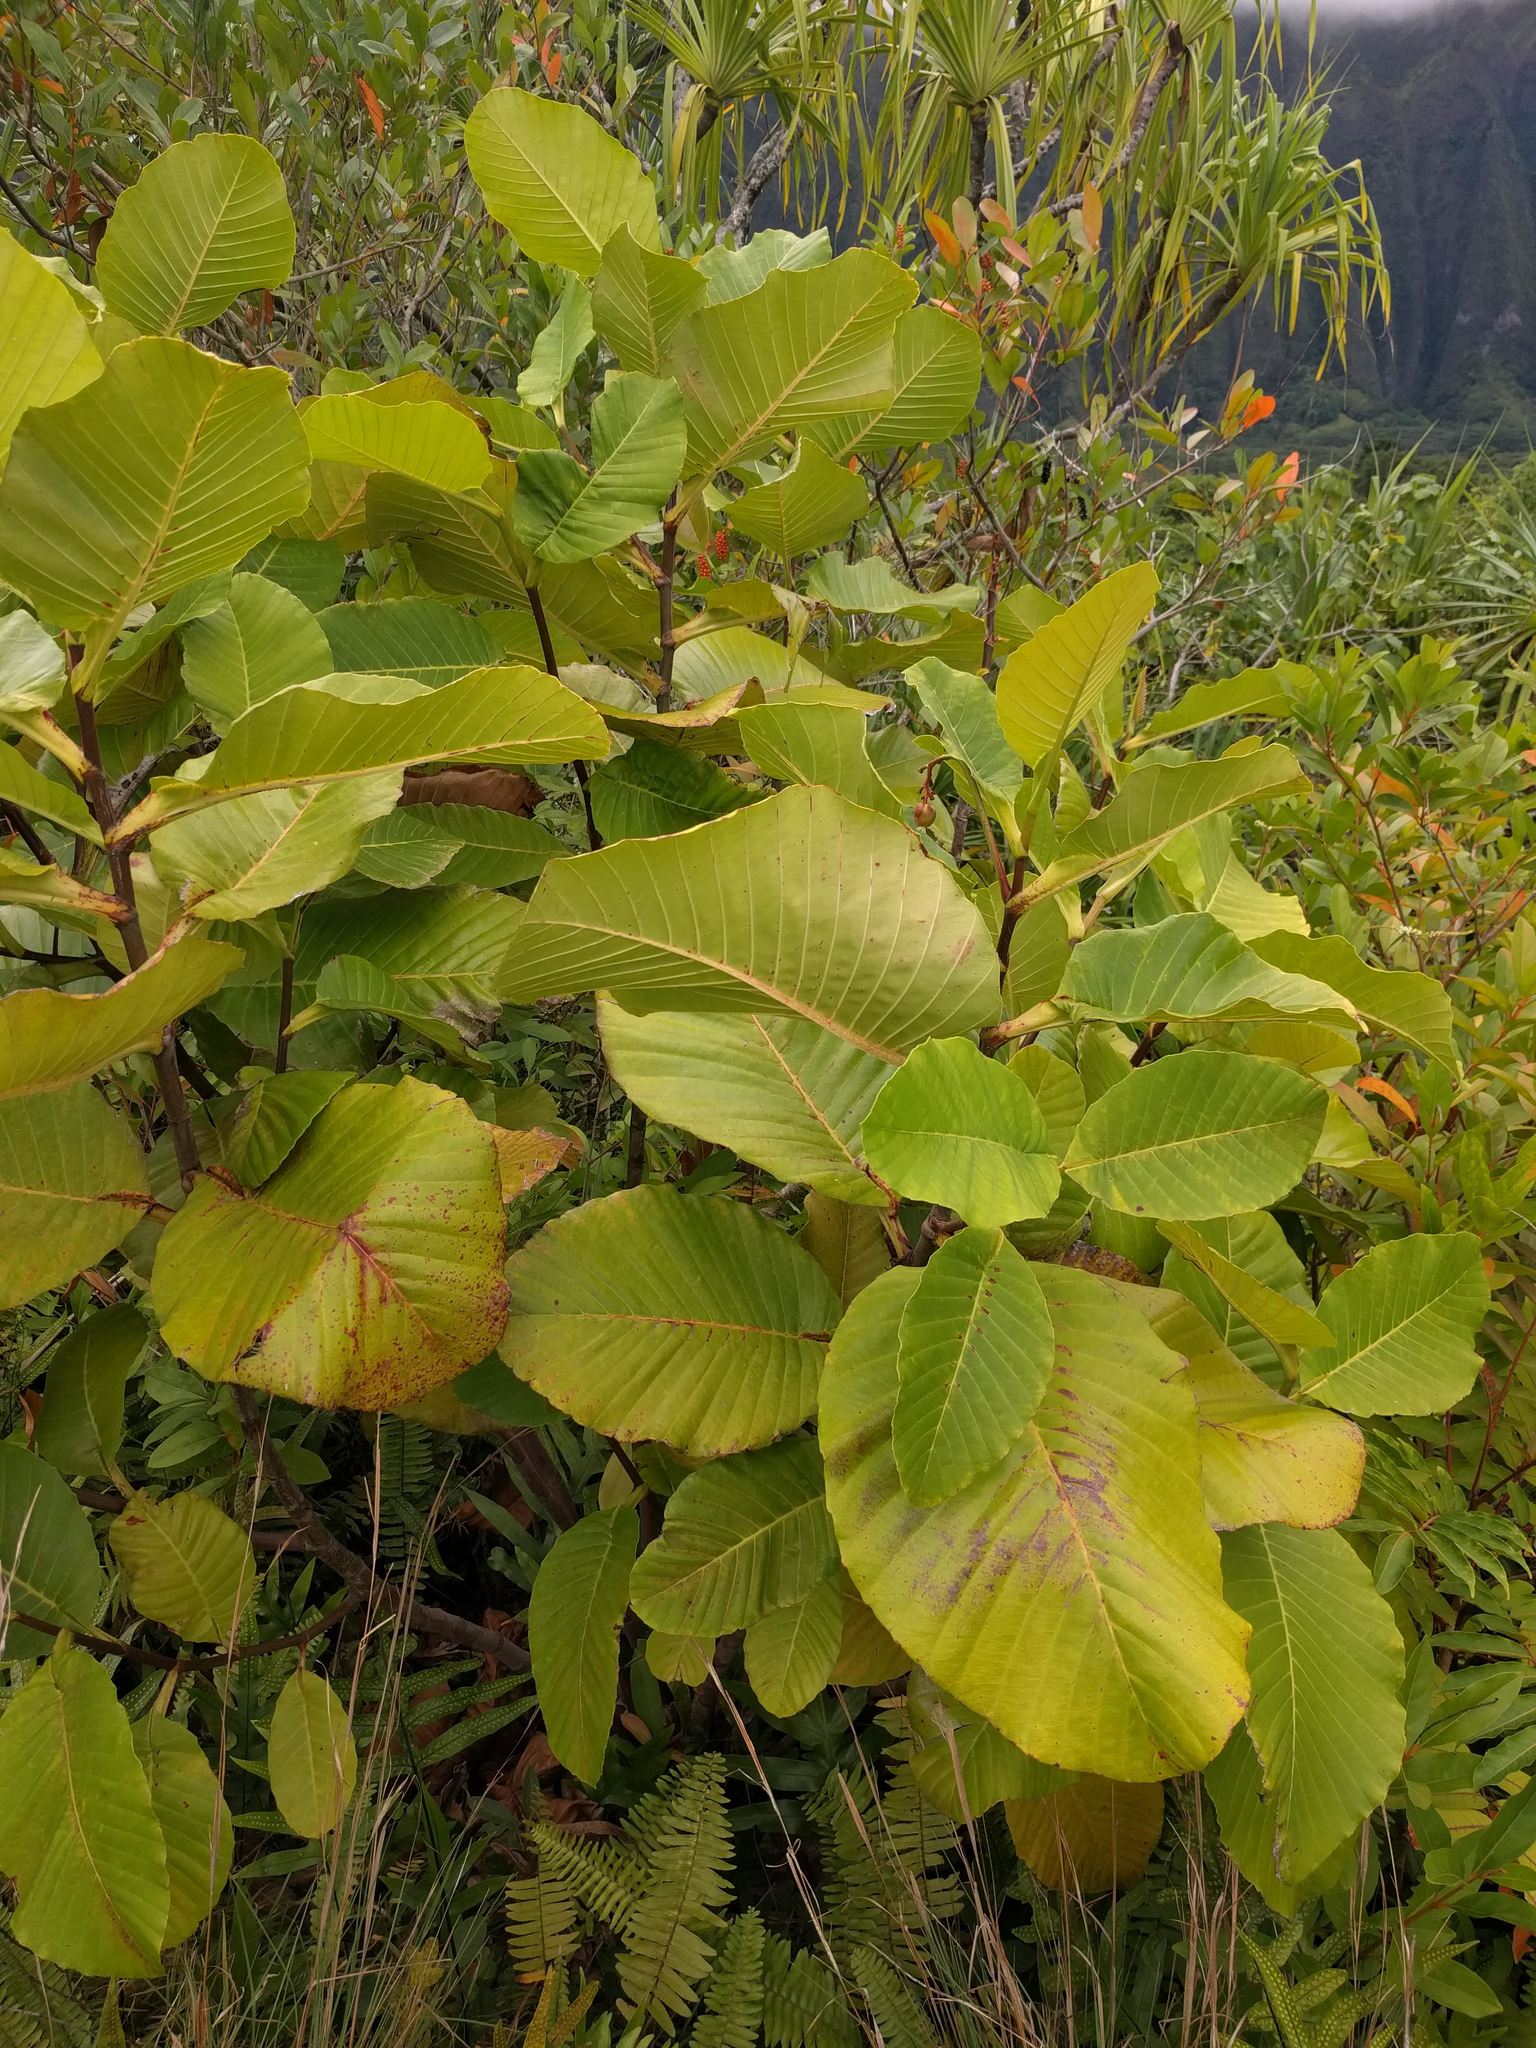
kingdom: Plantae
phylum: Tracheophyta
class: Magnoliopsida
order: Dilleniales
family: Dilleniaceae
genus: Dillenia
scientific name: Dillenia suffruticosa
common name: Shrubby dillenia
